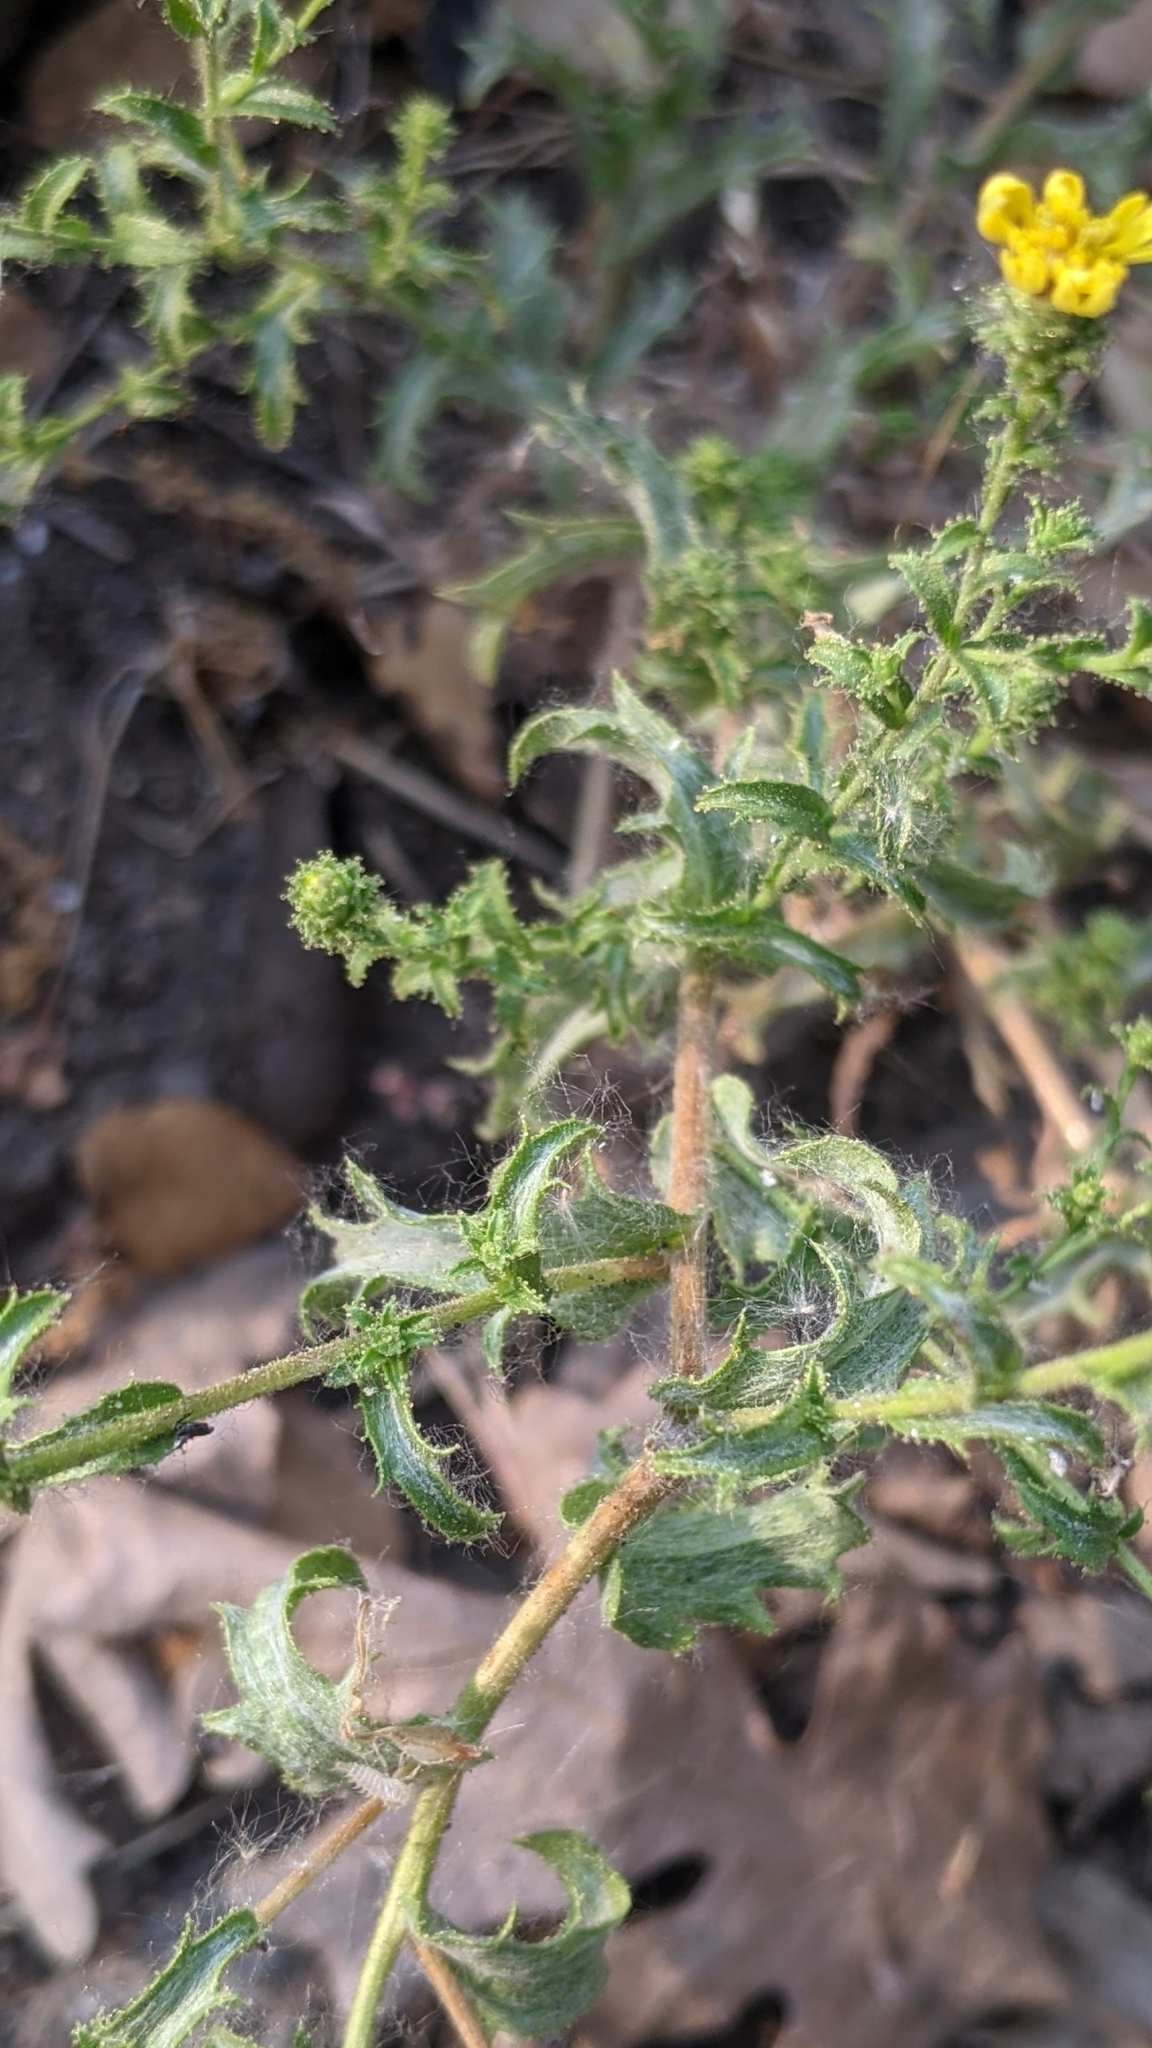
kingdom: Plantae
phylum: Tracheophyta
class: Magnoliopsida
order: Asterales
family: Asteraceae
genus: Lessingia
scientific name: Lessingia pectinata
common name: Valley lessingia
